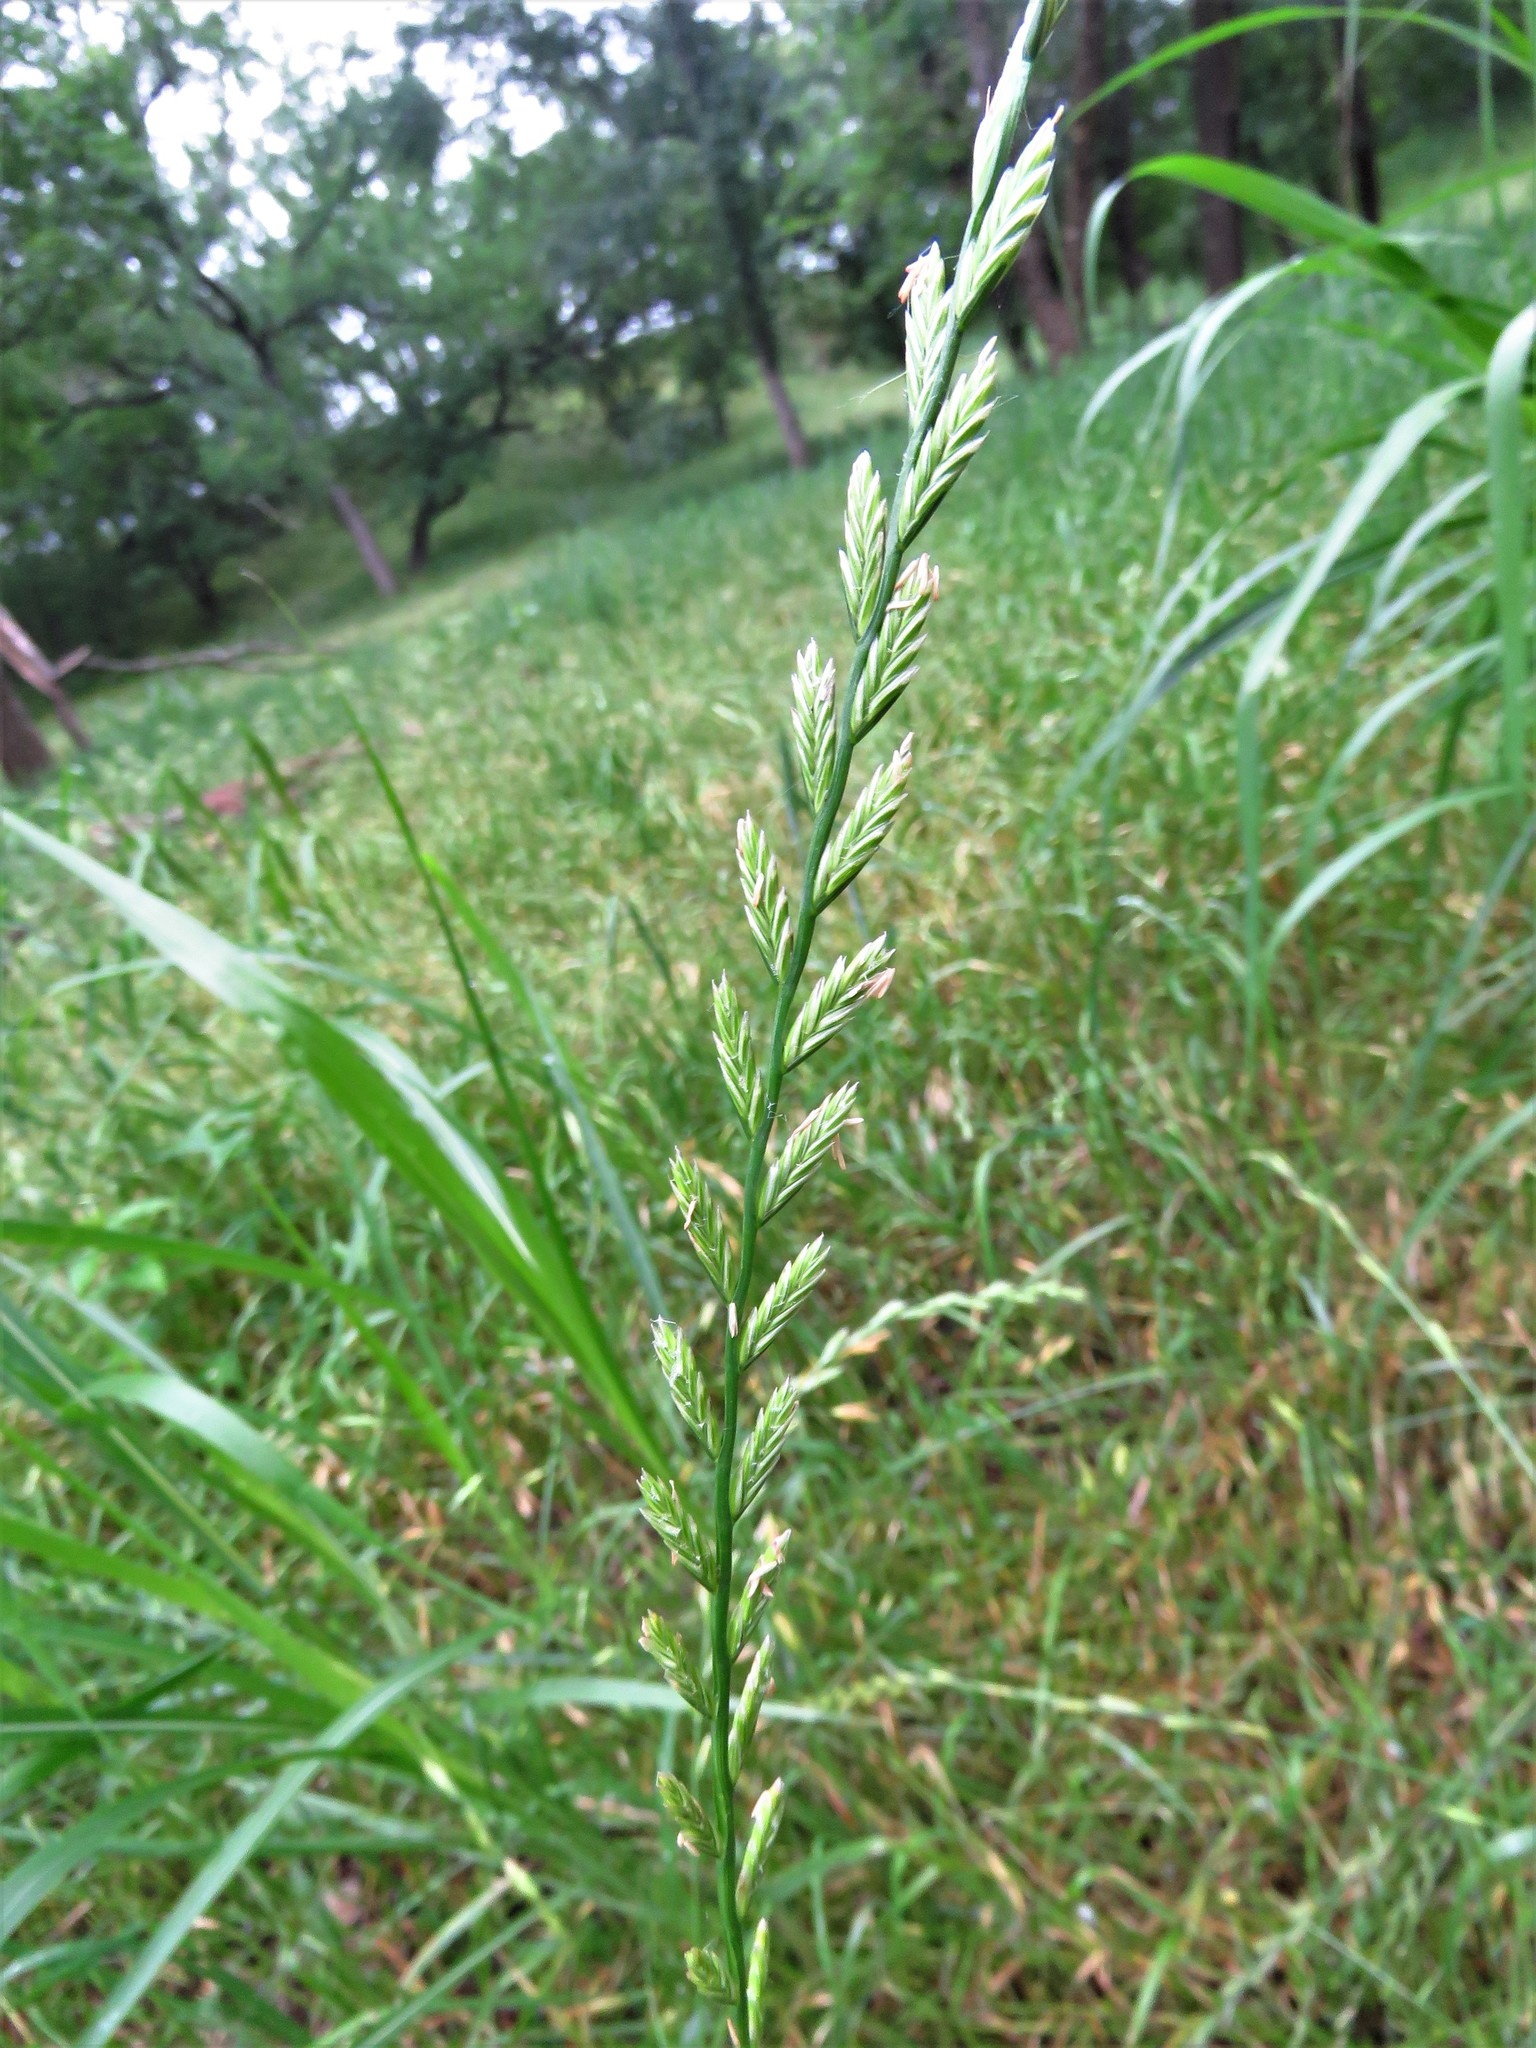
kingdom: Plantae
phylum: Tracheophyta
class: Liliopsida
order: Poales
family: Poaceae
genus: Lolium
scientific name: Lolium perenne
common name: Perennial ryegrass
